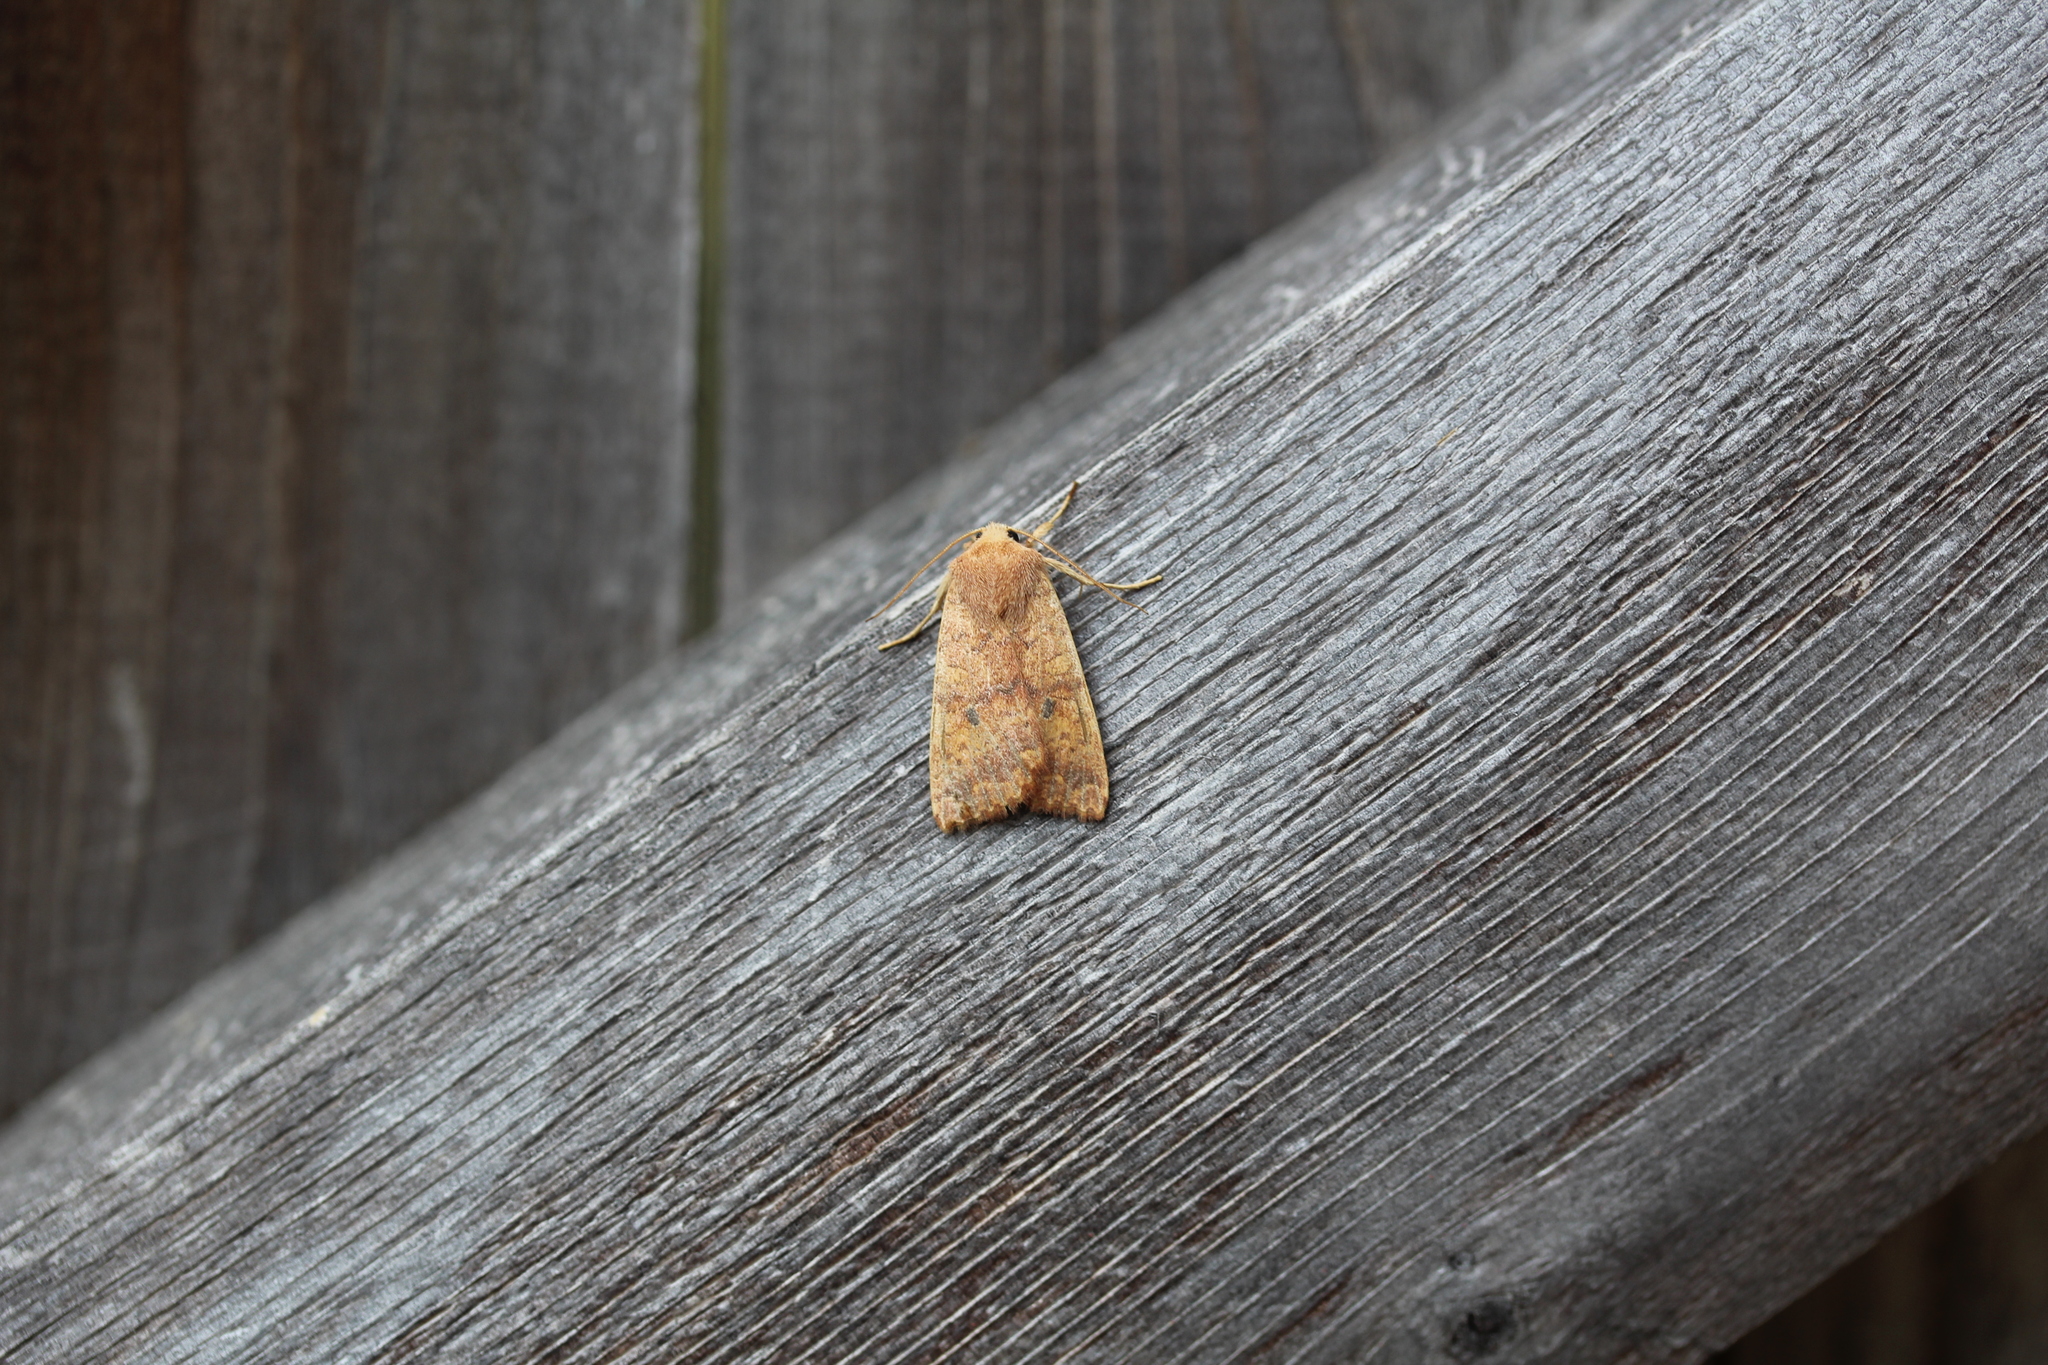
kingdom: Animalia
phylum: Arthropoda
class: Insecta
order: Lepidoptera
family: Noctuidae
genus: Agrochola
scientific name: Agrochola bicolorago
